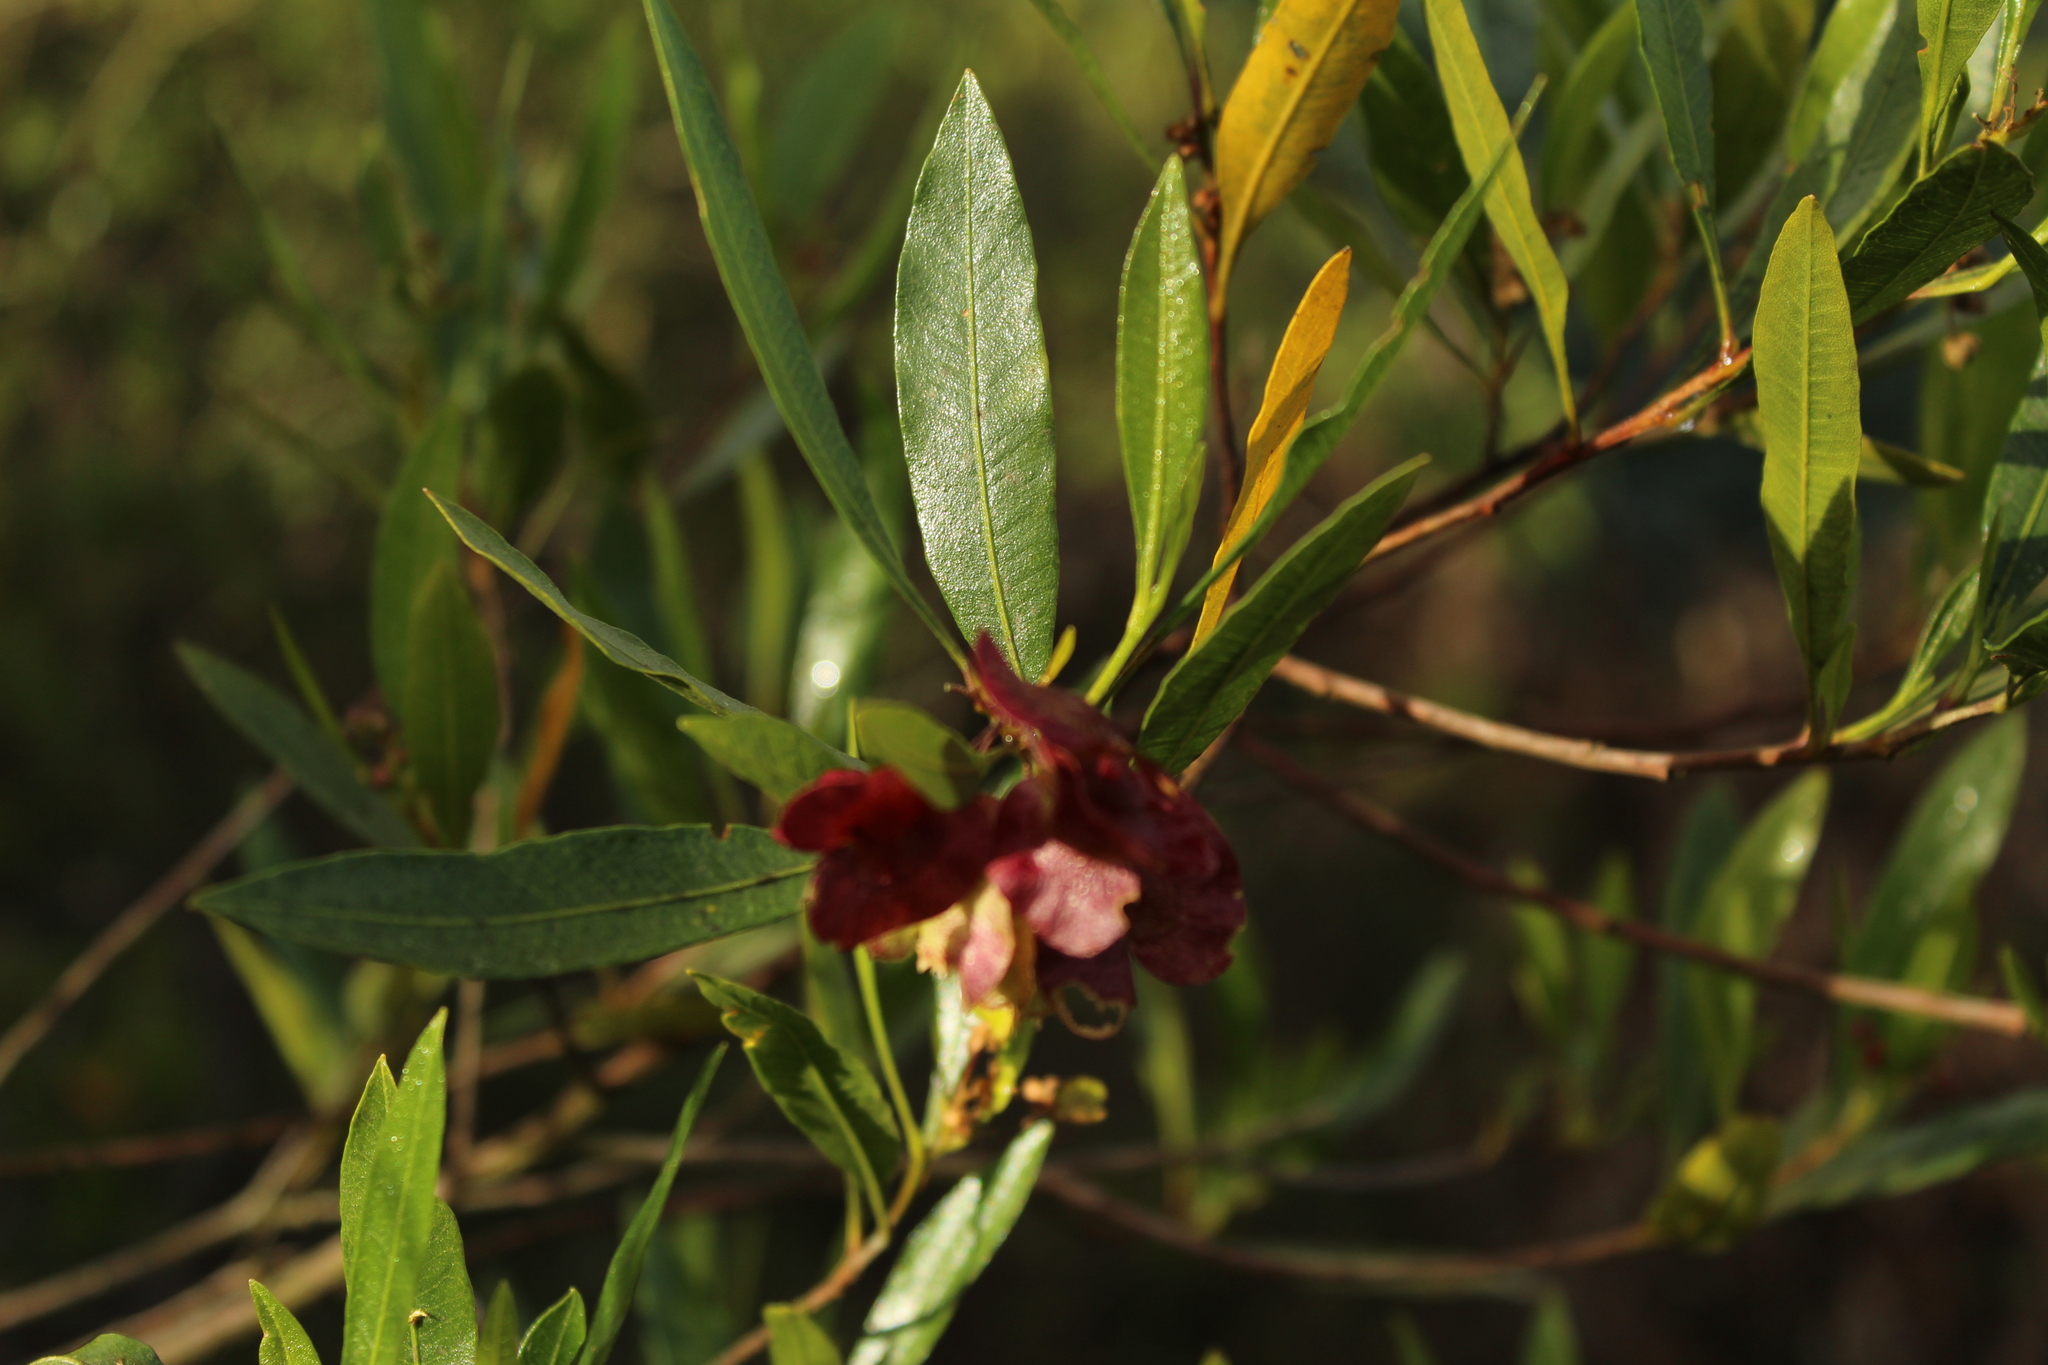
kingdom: Plantae
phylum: Tracheophyta
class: Magnoliopsida
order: Sapindales
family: Sapindaceae
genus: Dodonaea
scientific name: Dodonaea viscosa
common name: Hopbush
